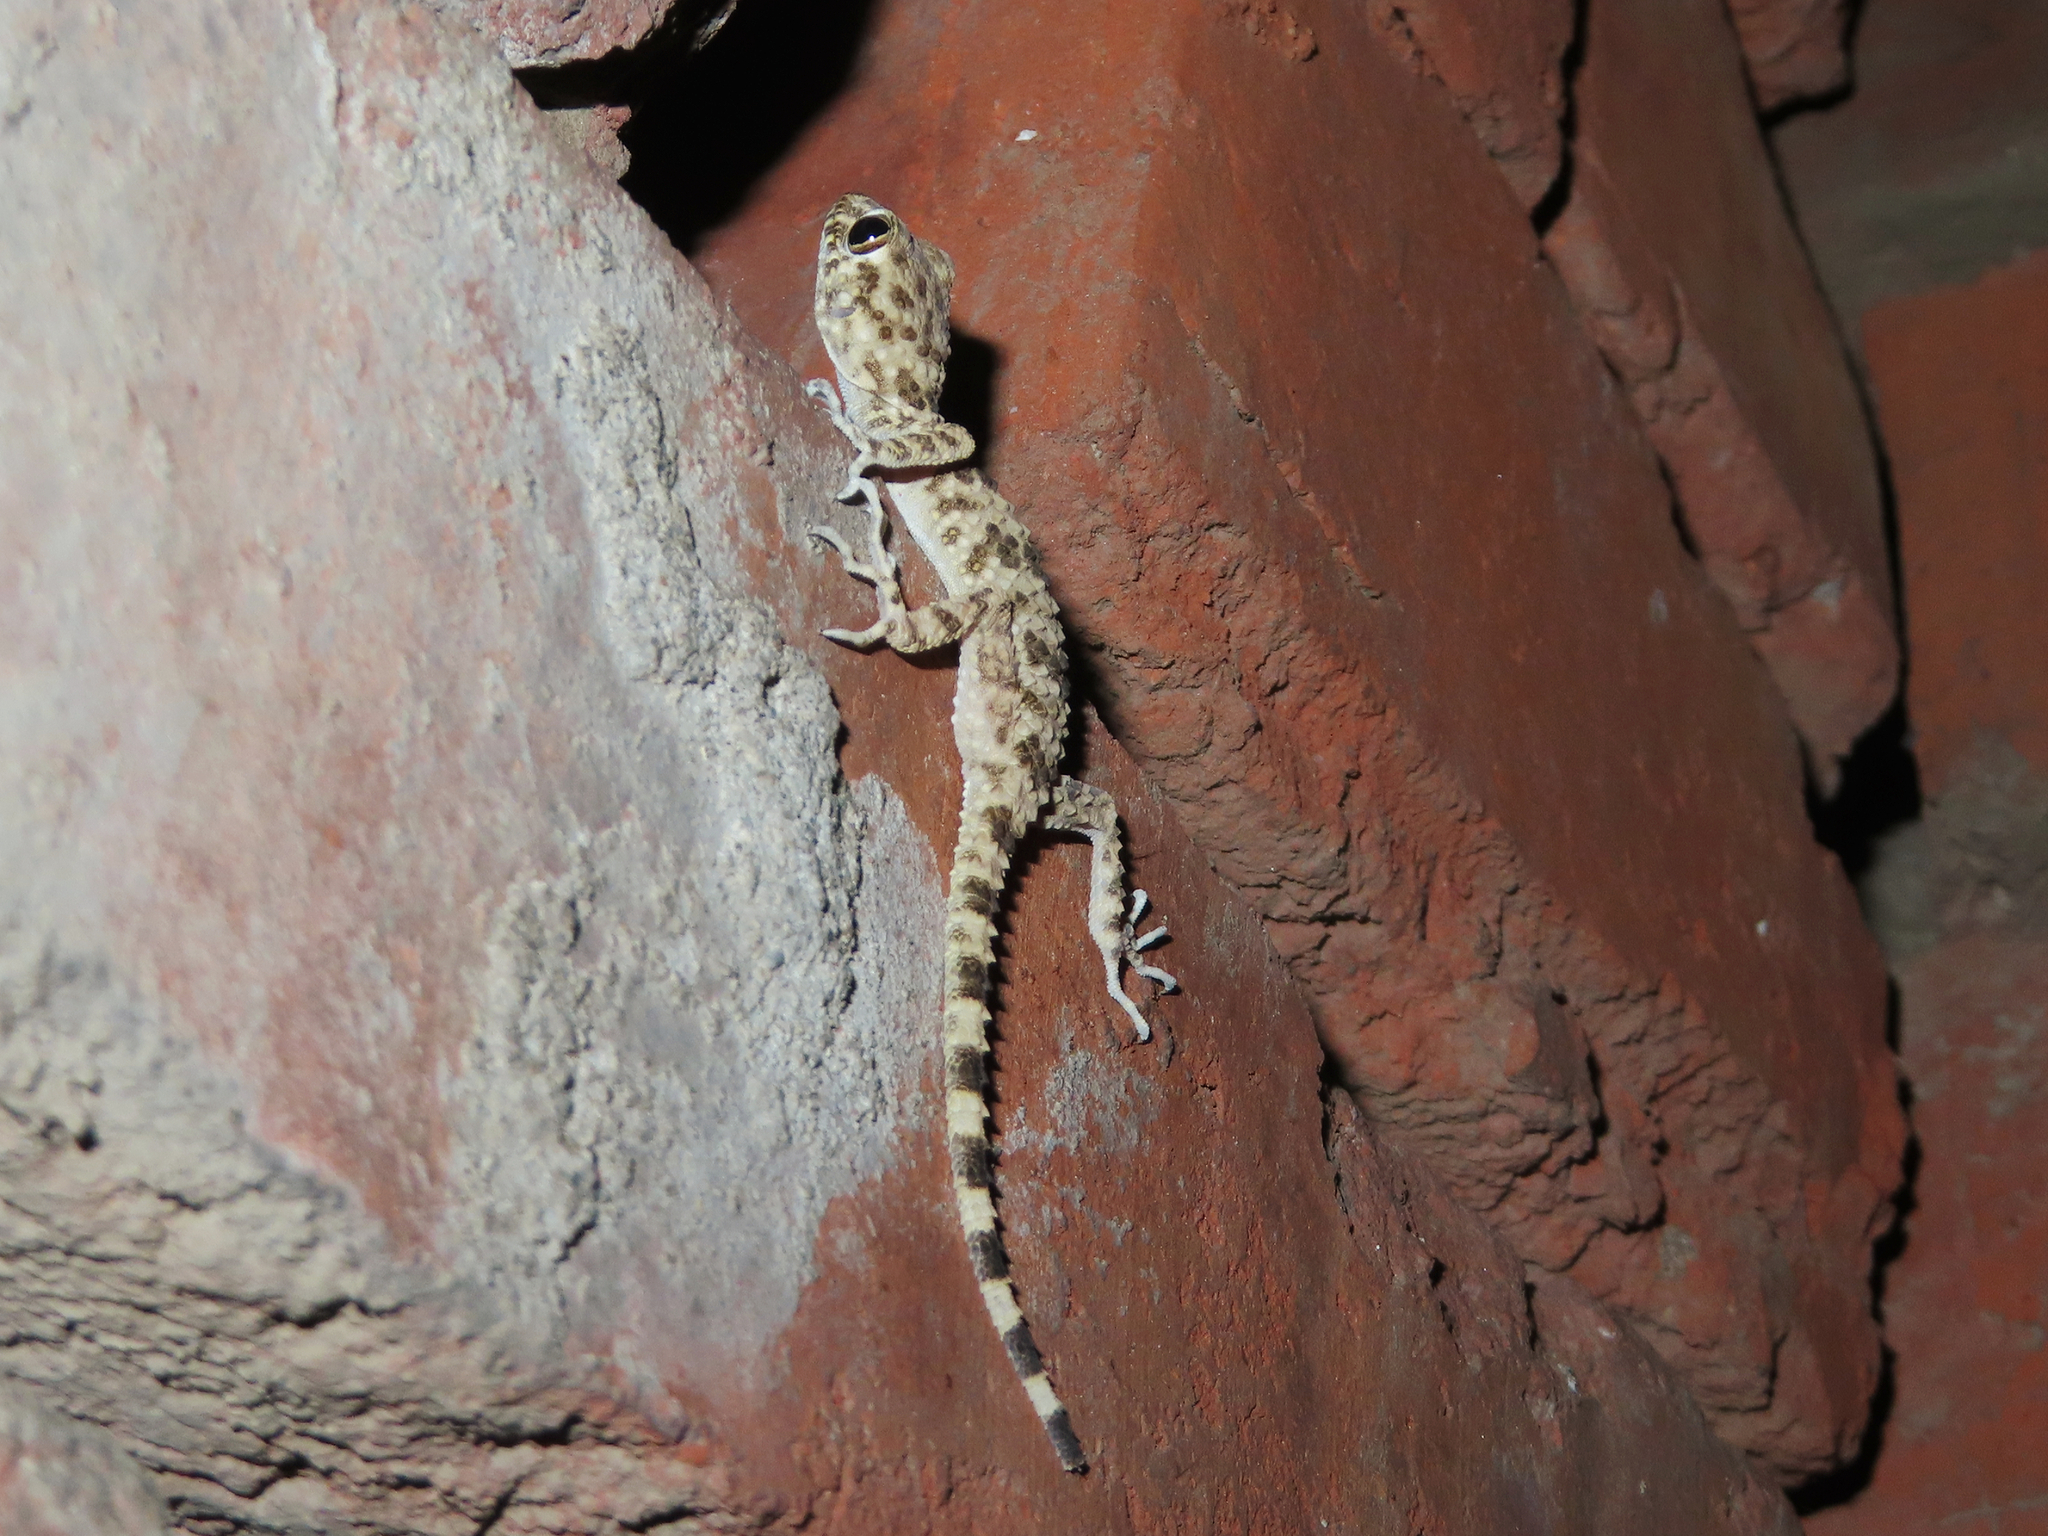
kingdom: Animalia
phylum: Chordata
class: Squamata
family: Gekkonidae
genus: Tenuidactylus
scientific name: Tenuidactylus caspius
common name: Caspian bent-toed gecko
